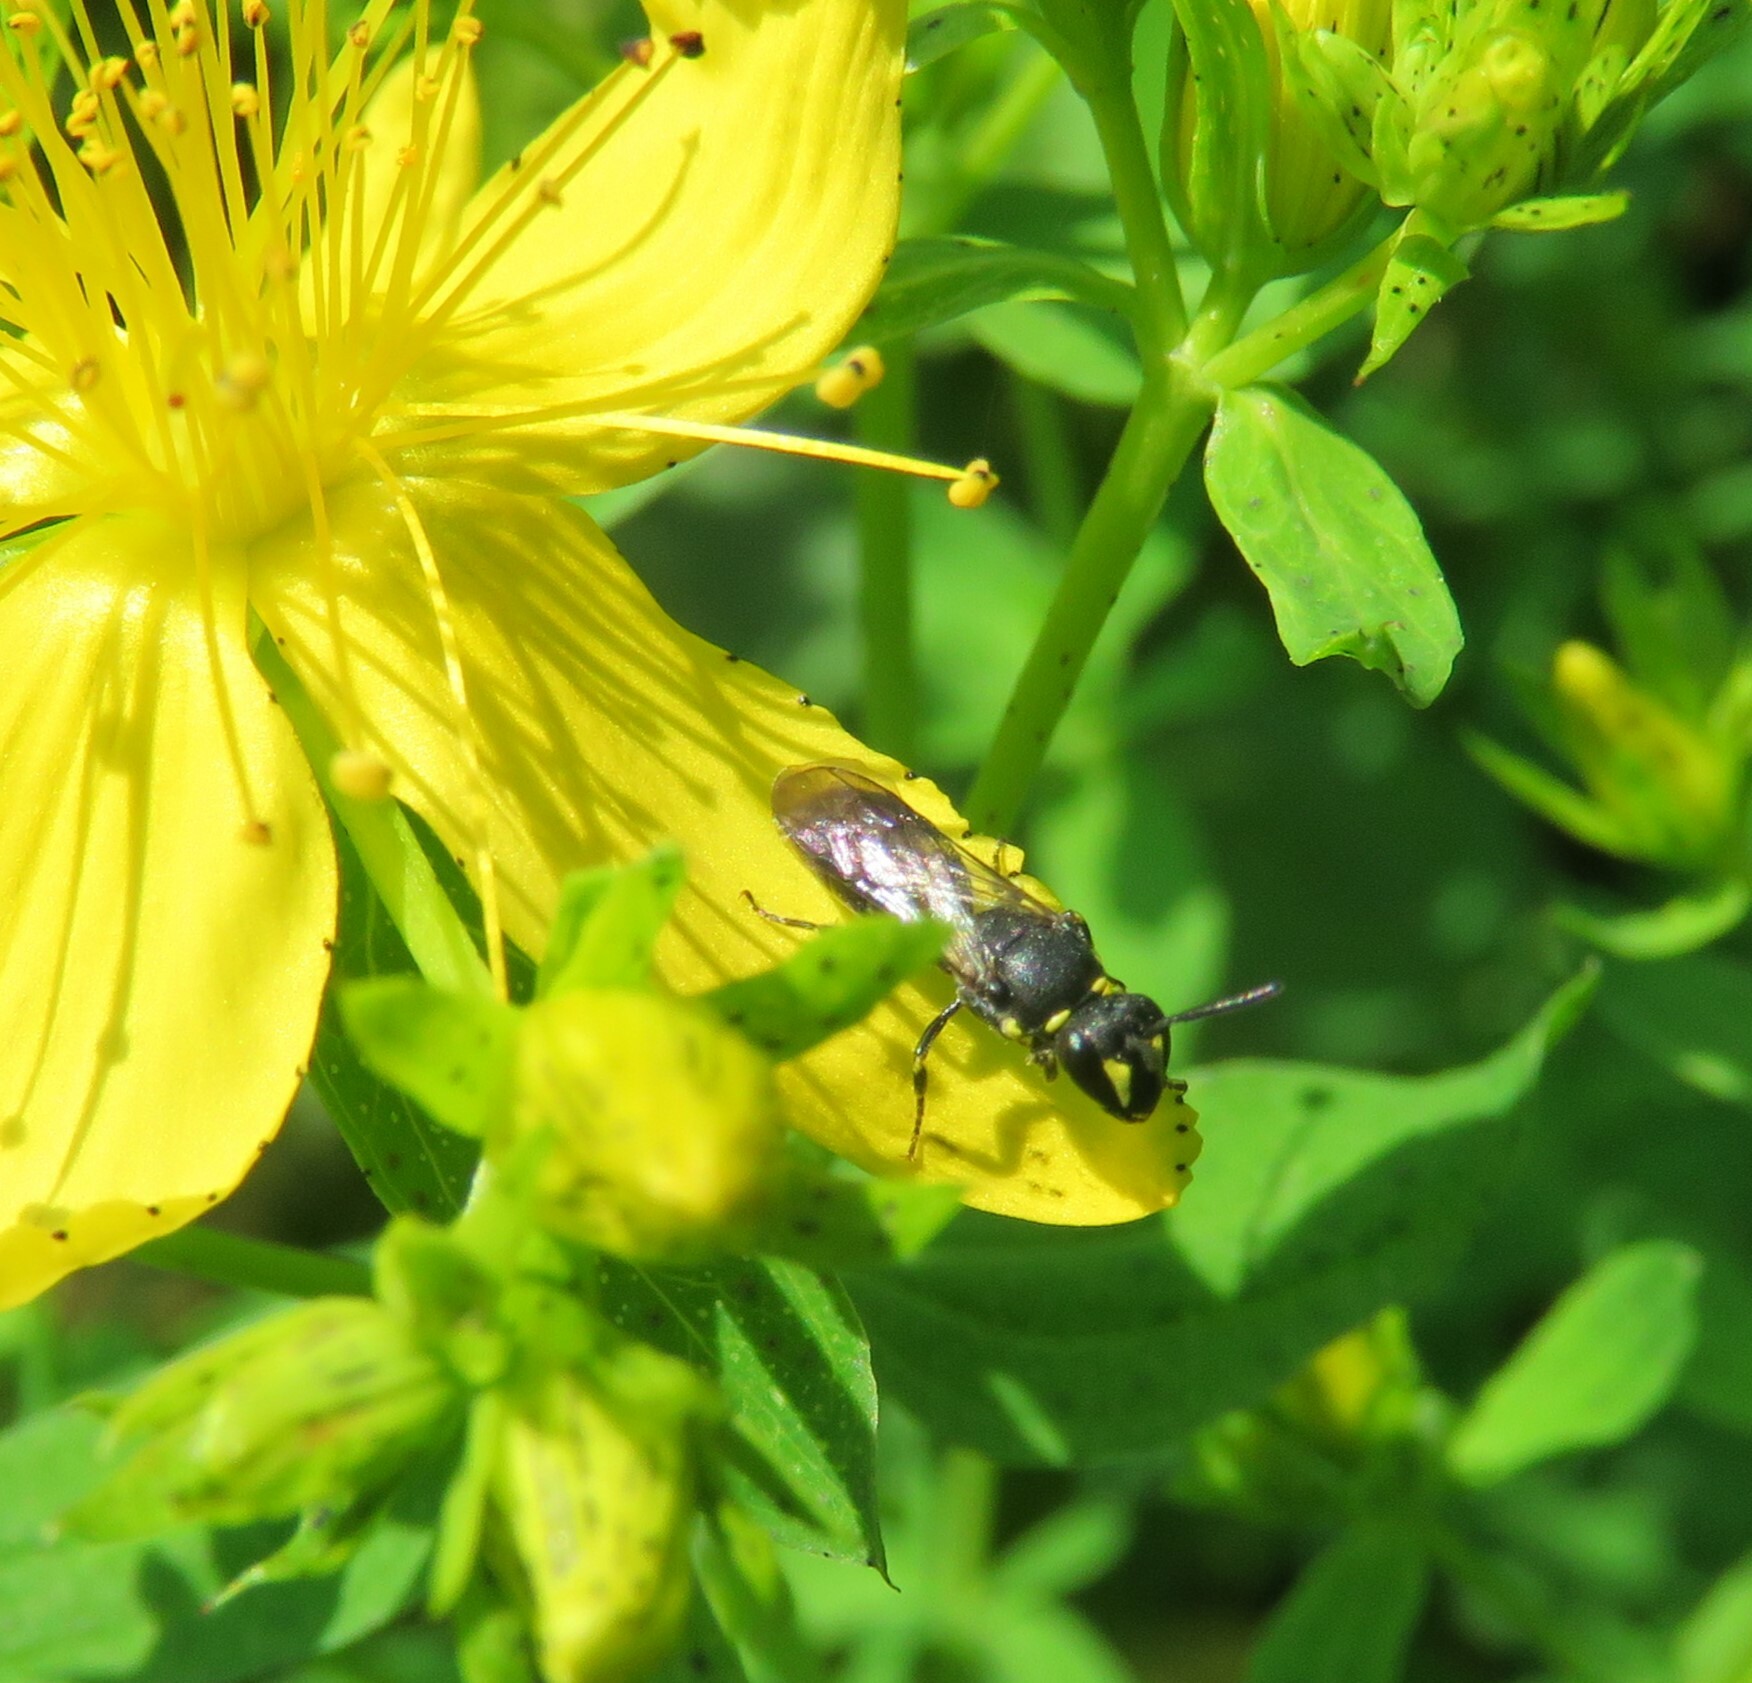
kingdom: Animalia
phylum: Arthropoda
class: Insecta
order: Hymenoptera
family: Colletidae
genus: Hylaeus
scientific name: Hylaeus modestus
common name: Yellow-faced bee
